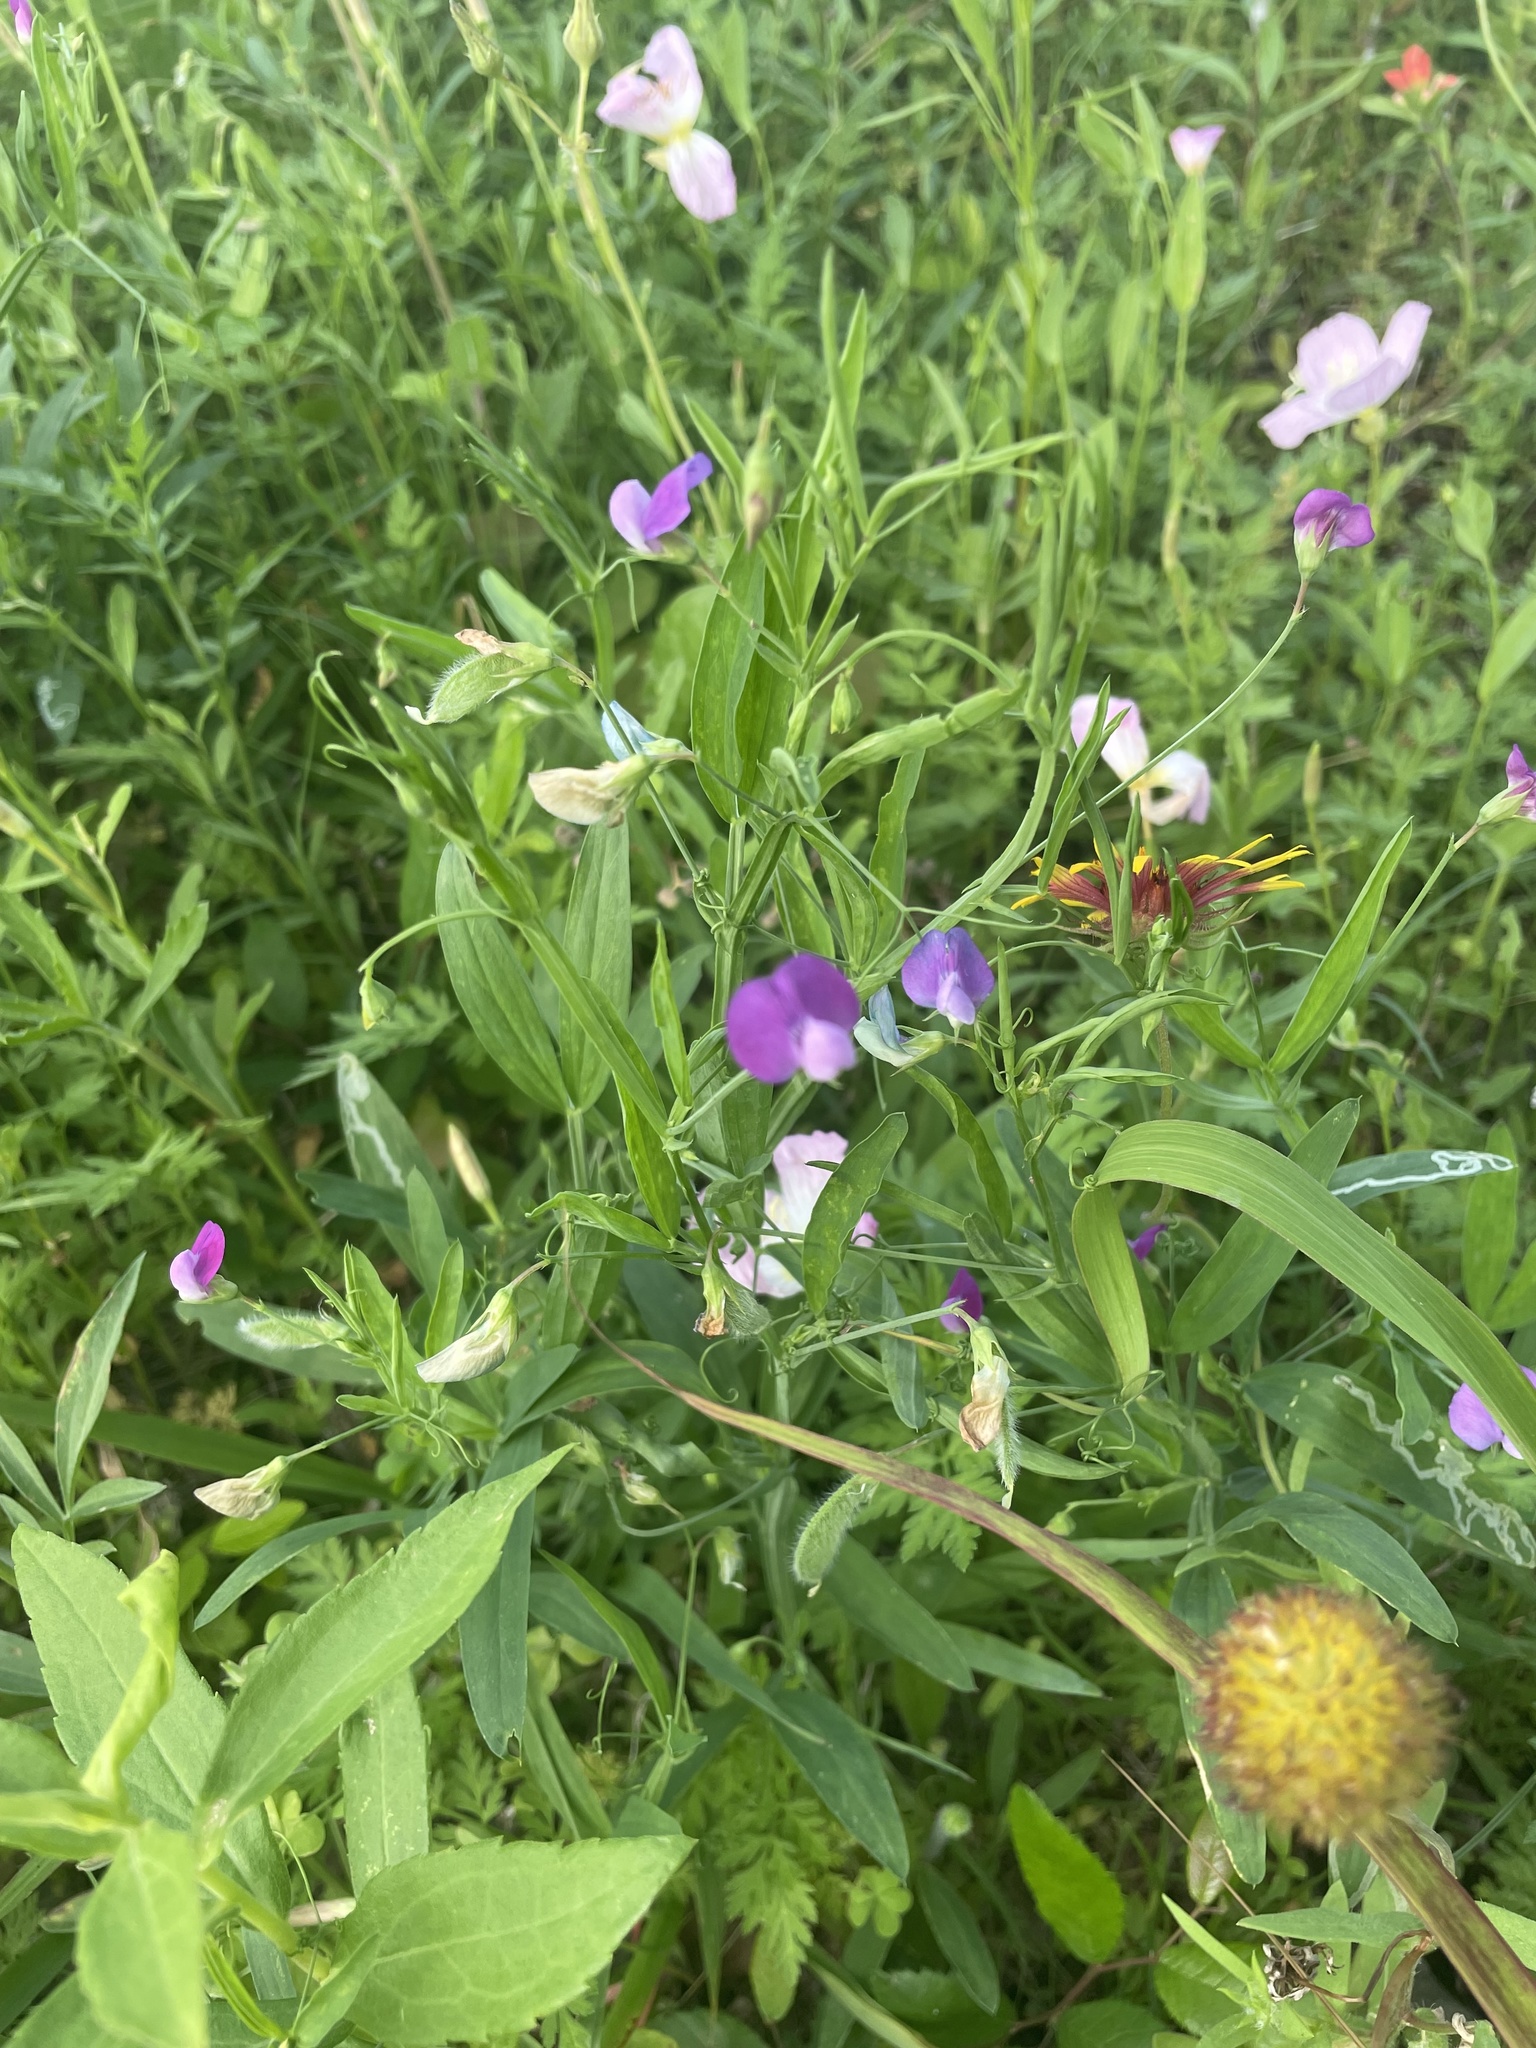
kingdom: Plantae
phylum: Tracheophyta
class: Magnoliopsida
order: Fabales
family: Fabaceae
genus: Lathyrus
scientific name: Lathyrus hirsutus
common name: Hairy vetchling
